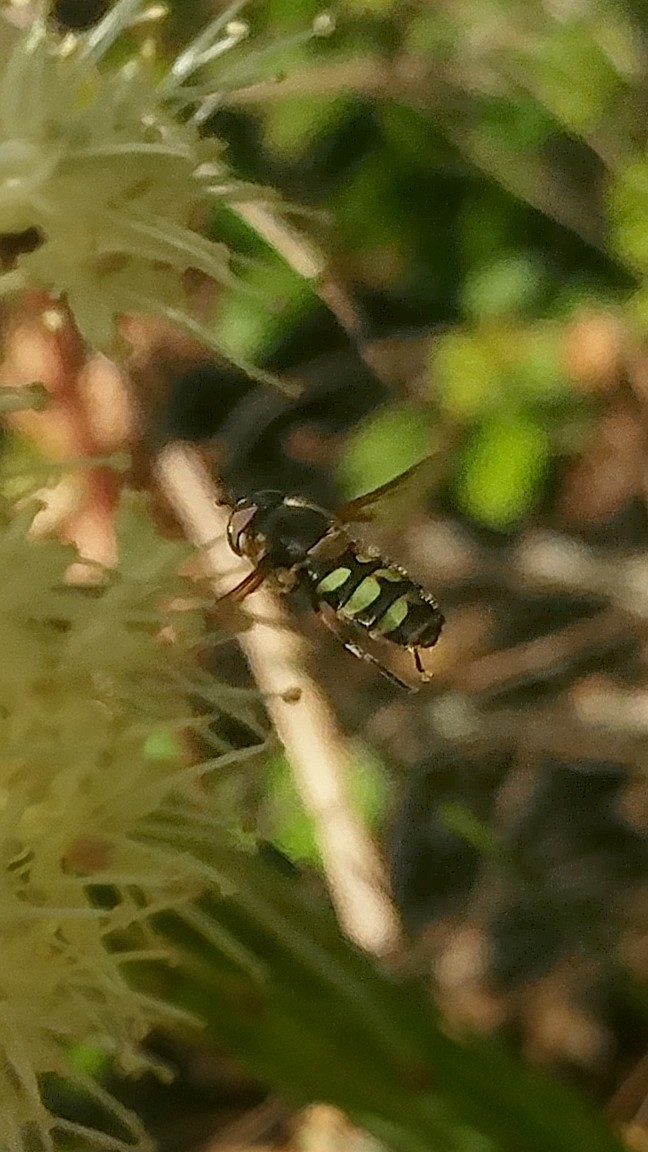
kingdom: Animalia
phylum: Arthropoda
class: Insecta
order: Diptera
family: Syrphidae
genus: Megasyrphus
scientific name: Megasyrphus laxus
